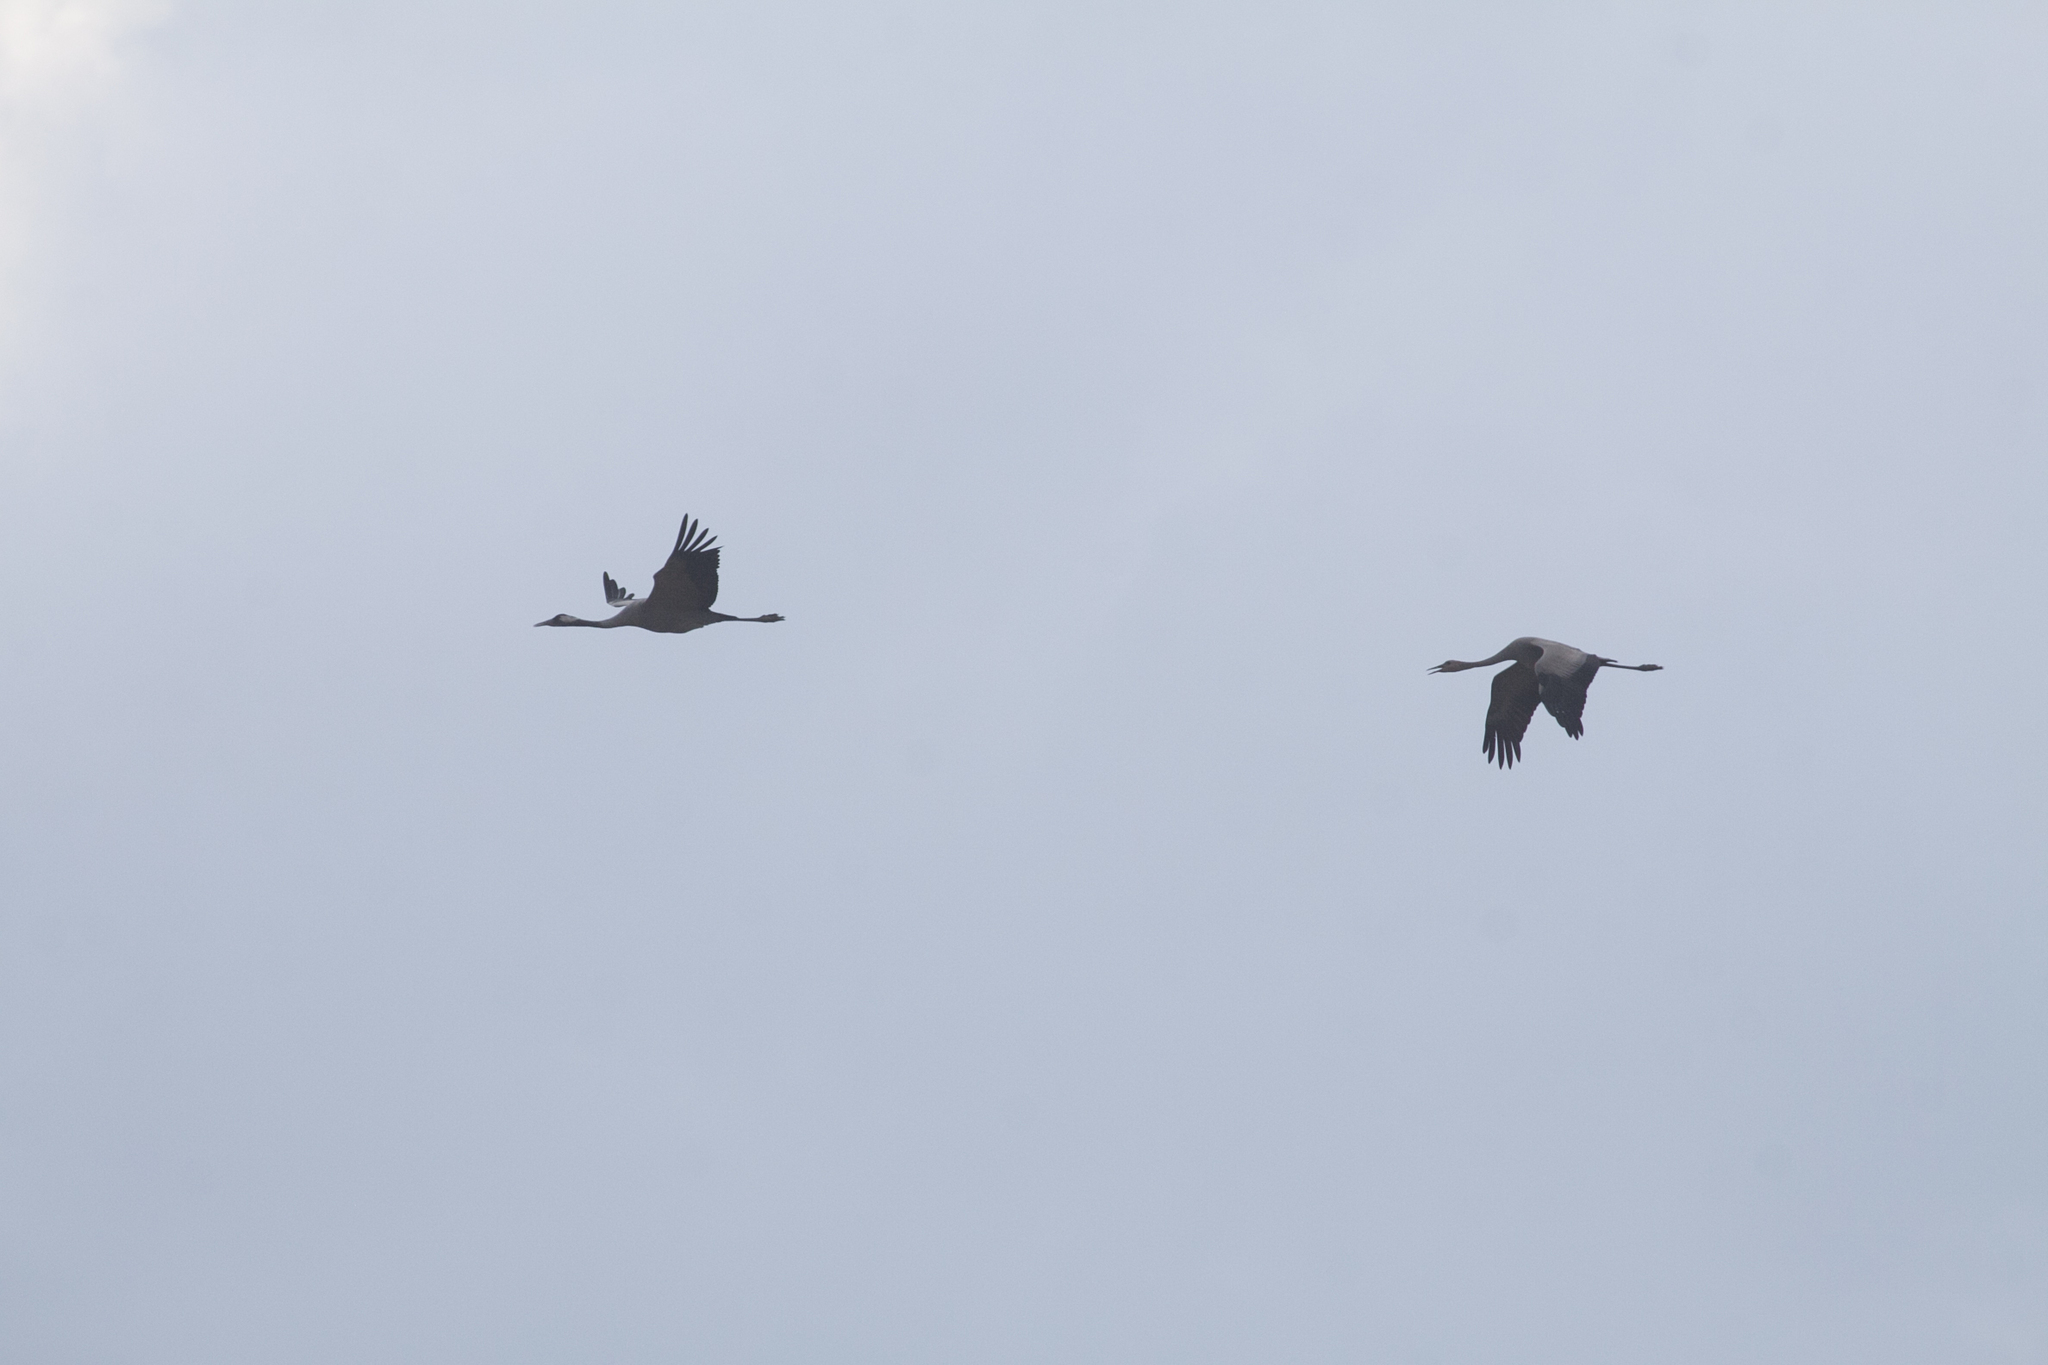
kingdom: Animalia
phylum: Chordata
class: Aves
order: Gruiformes
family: Gruidae
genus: Grus
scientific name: Grus grus
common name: Common crane
